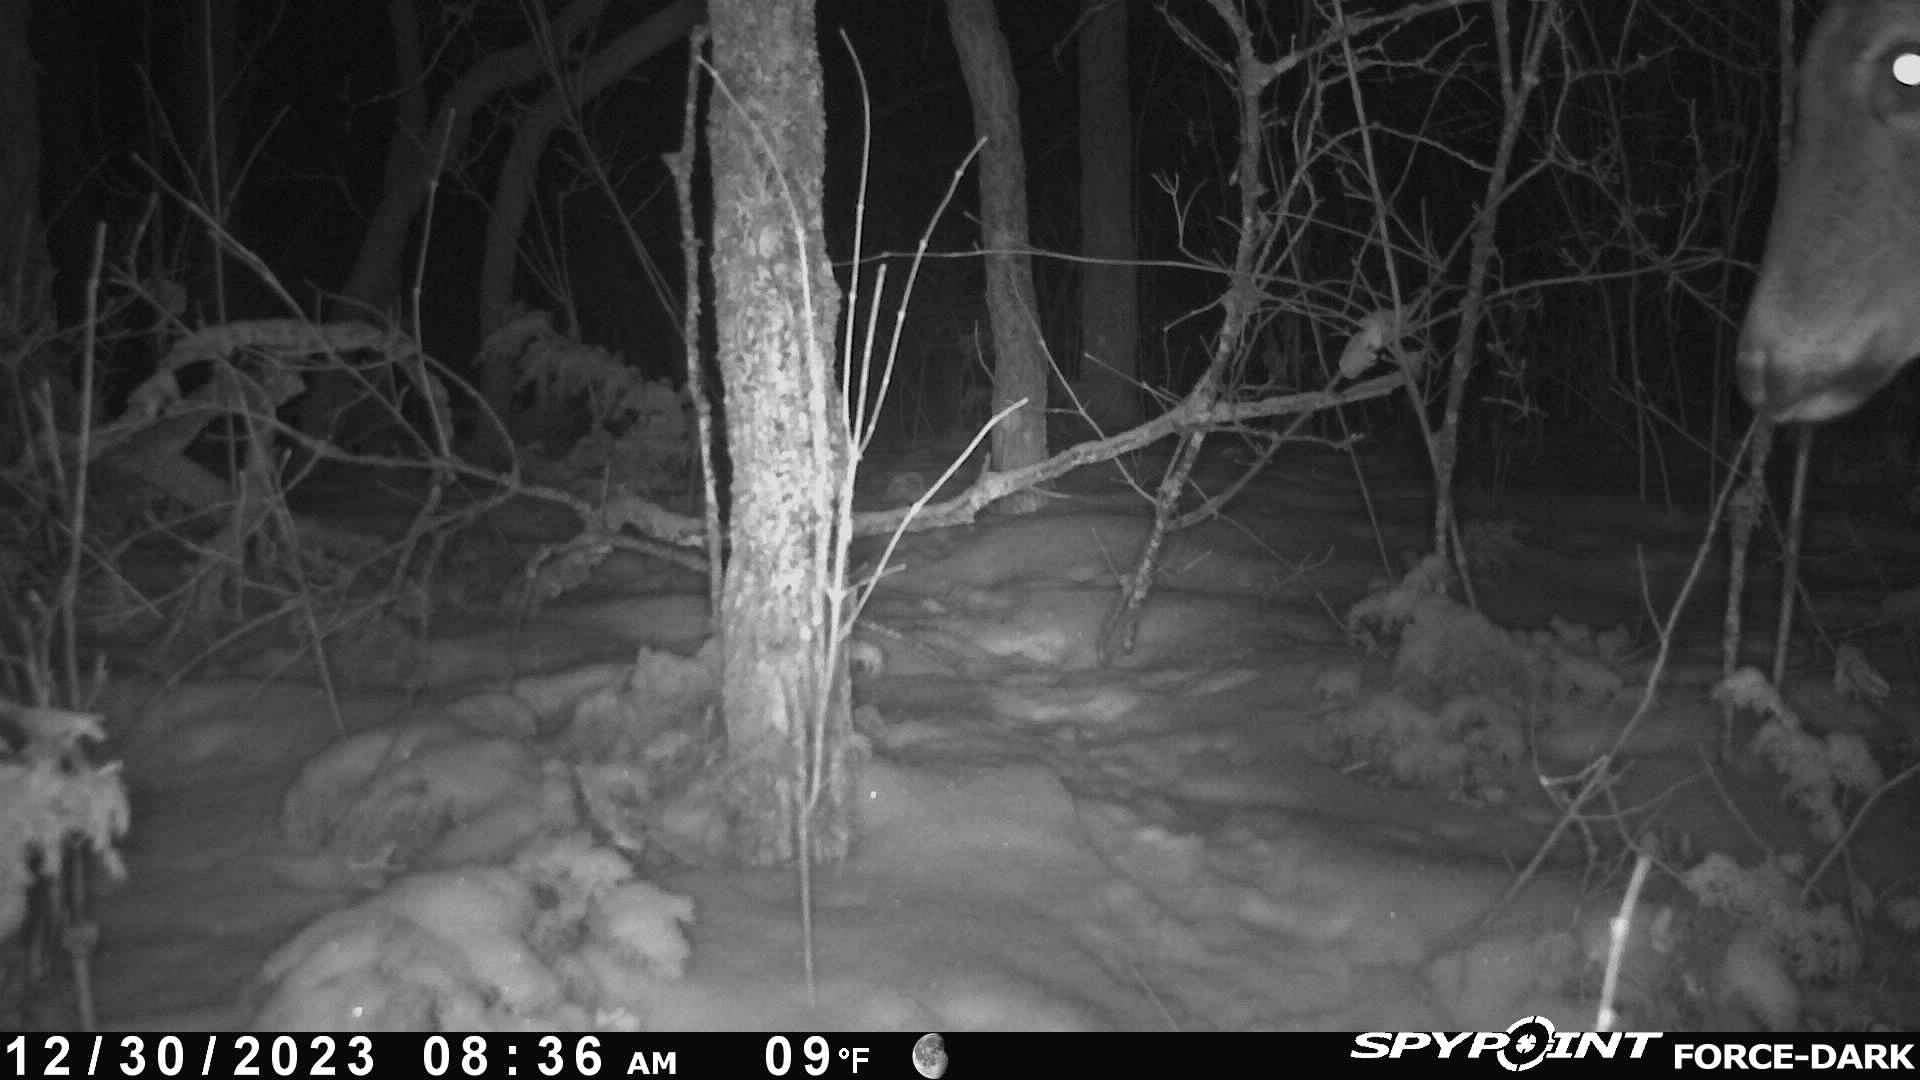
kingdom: Animalia
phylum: Chordata
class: Mammalia
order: Artiodactyla
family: Cervidae
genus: Odocoileus
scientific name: Odocoileus virginianus
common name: White-tailed deer
